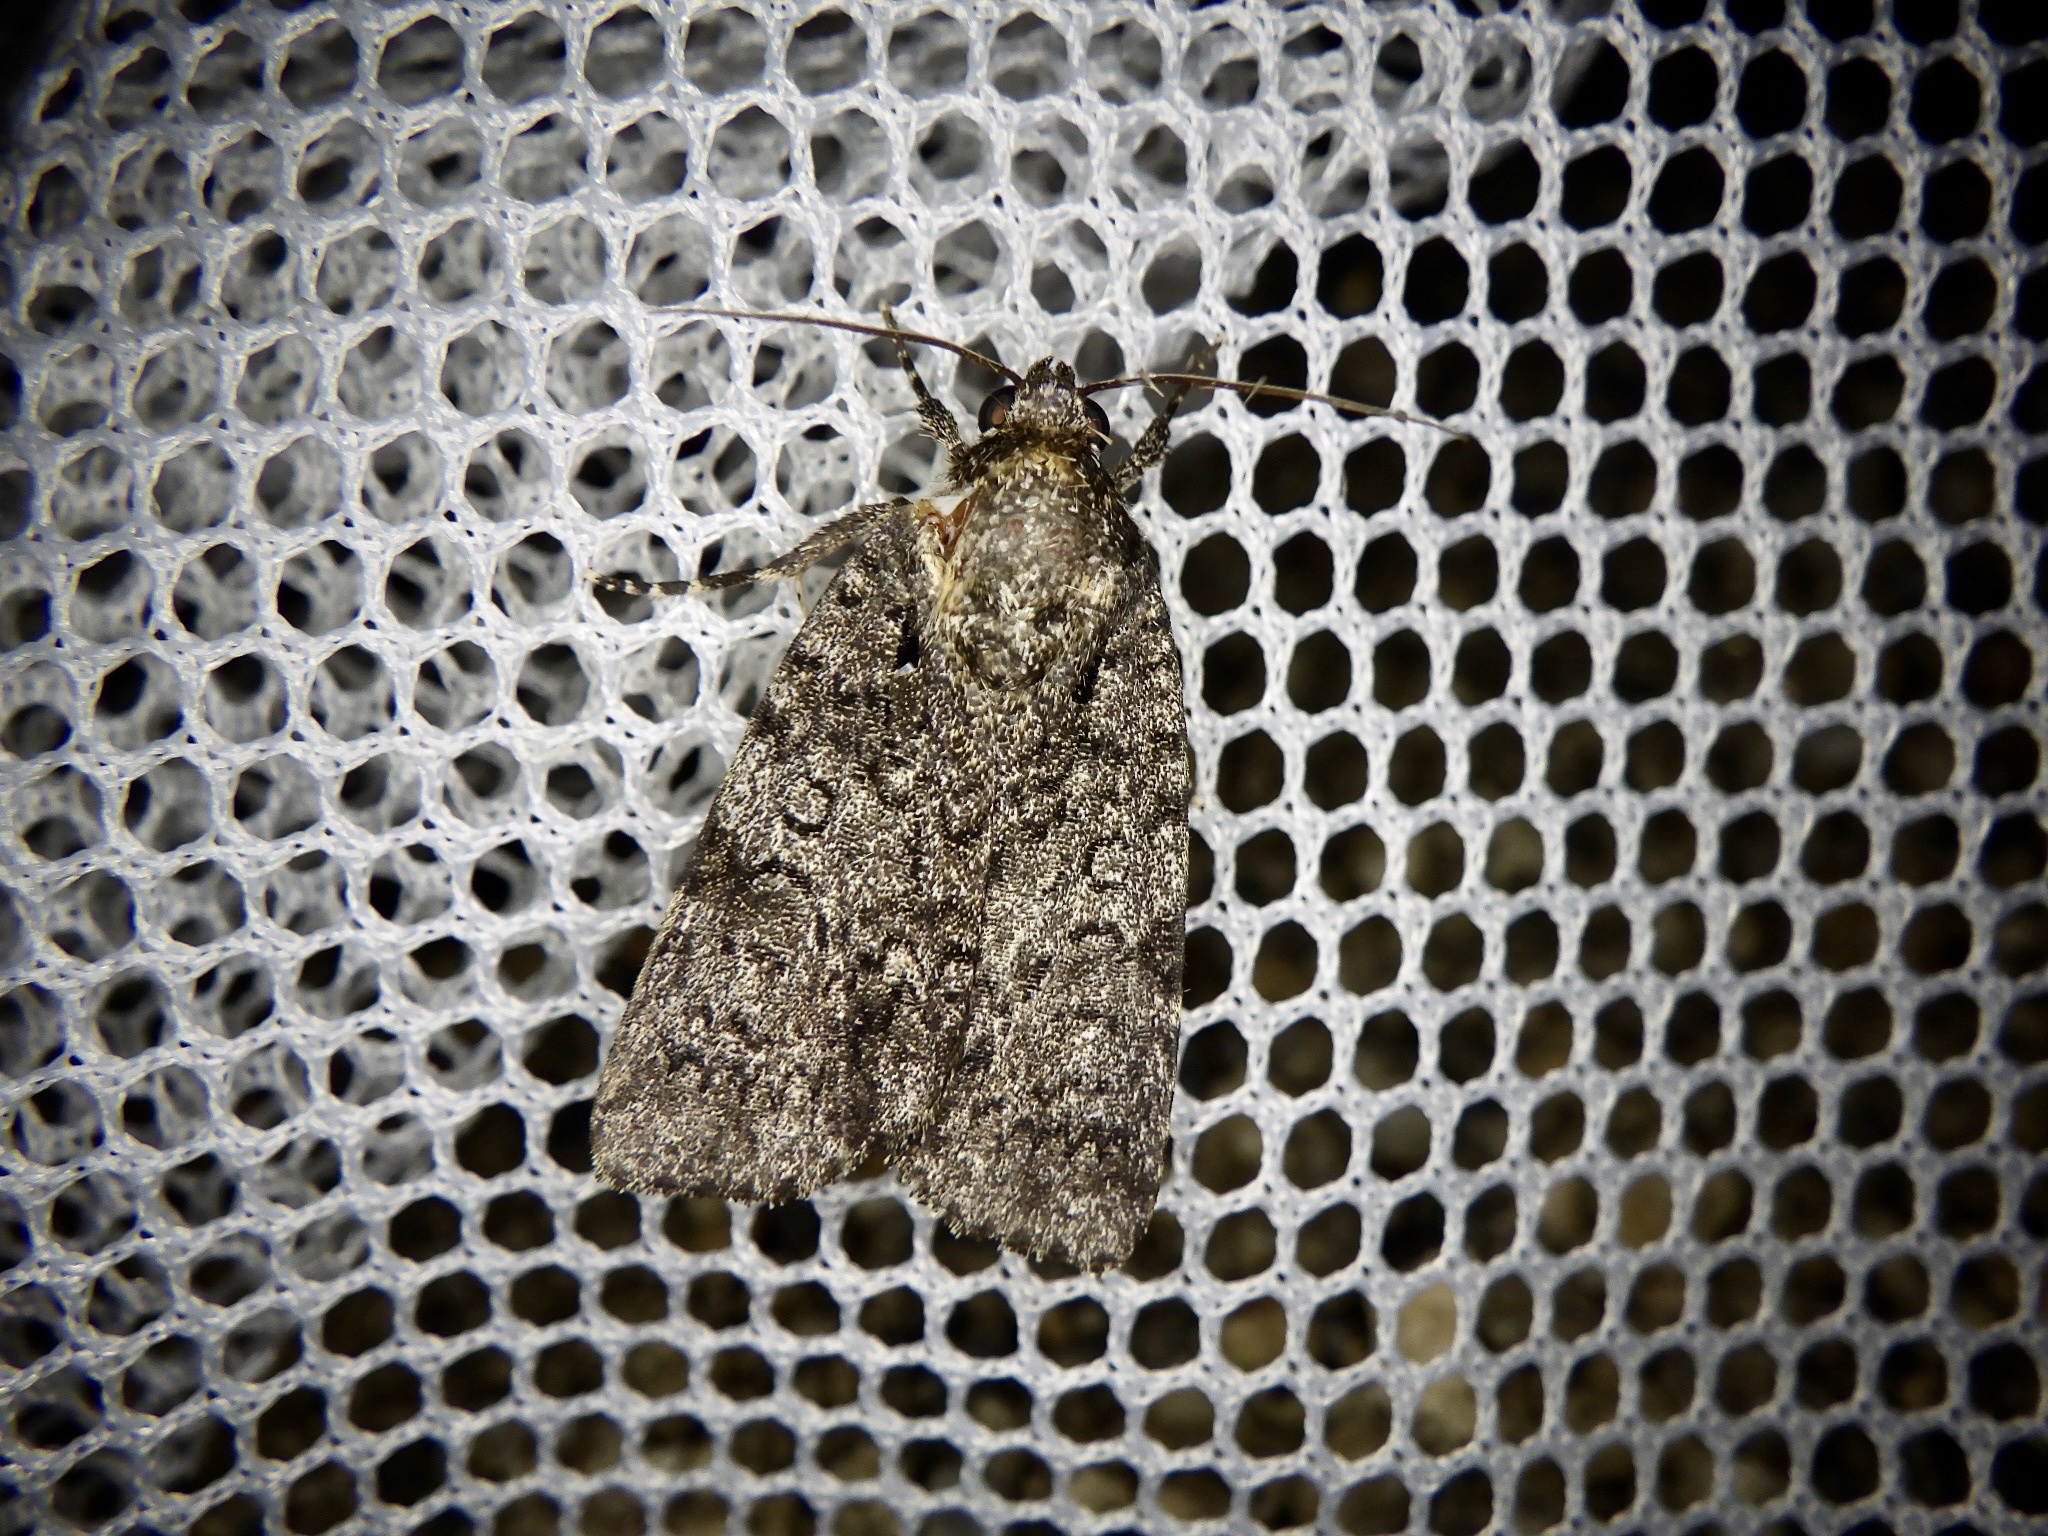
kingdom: Animalia
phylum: Arthropoda
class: Insecta
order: Lepidoptera
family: Noctuidae
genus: Acronicta
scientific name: Acronicta rumicis
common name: Knot grass
